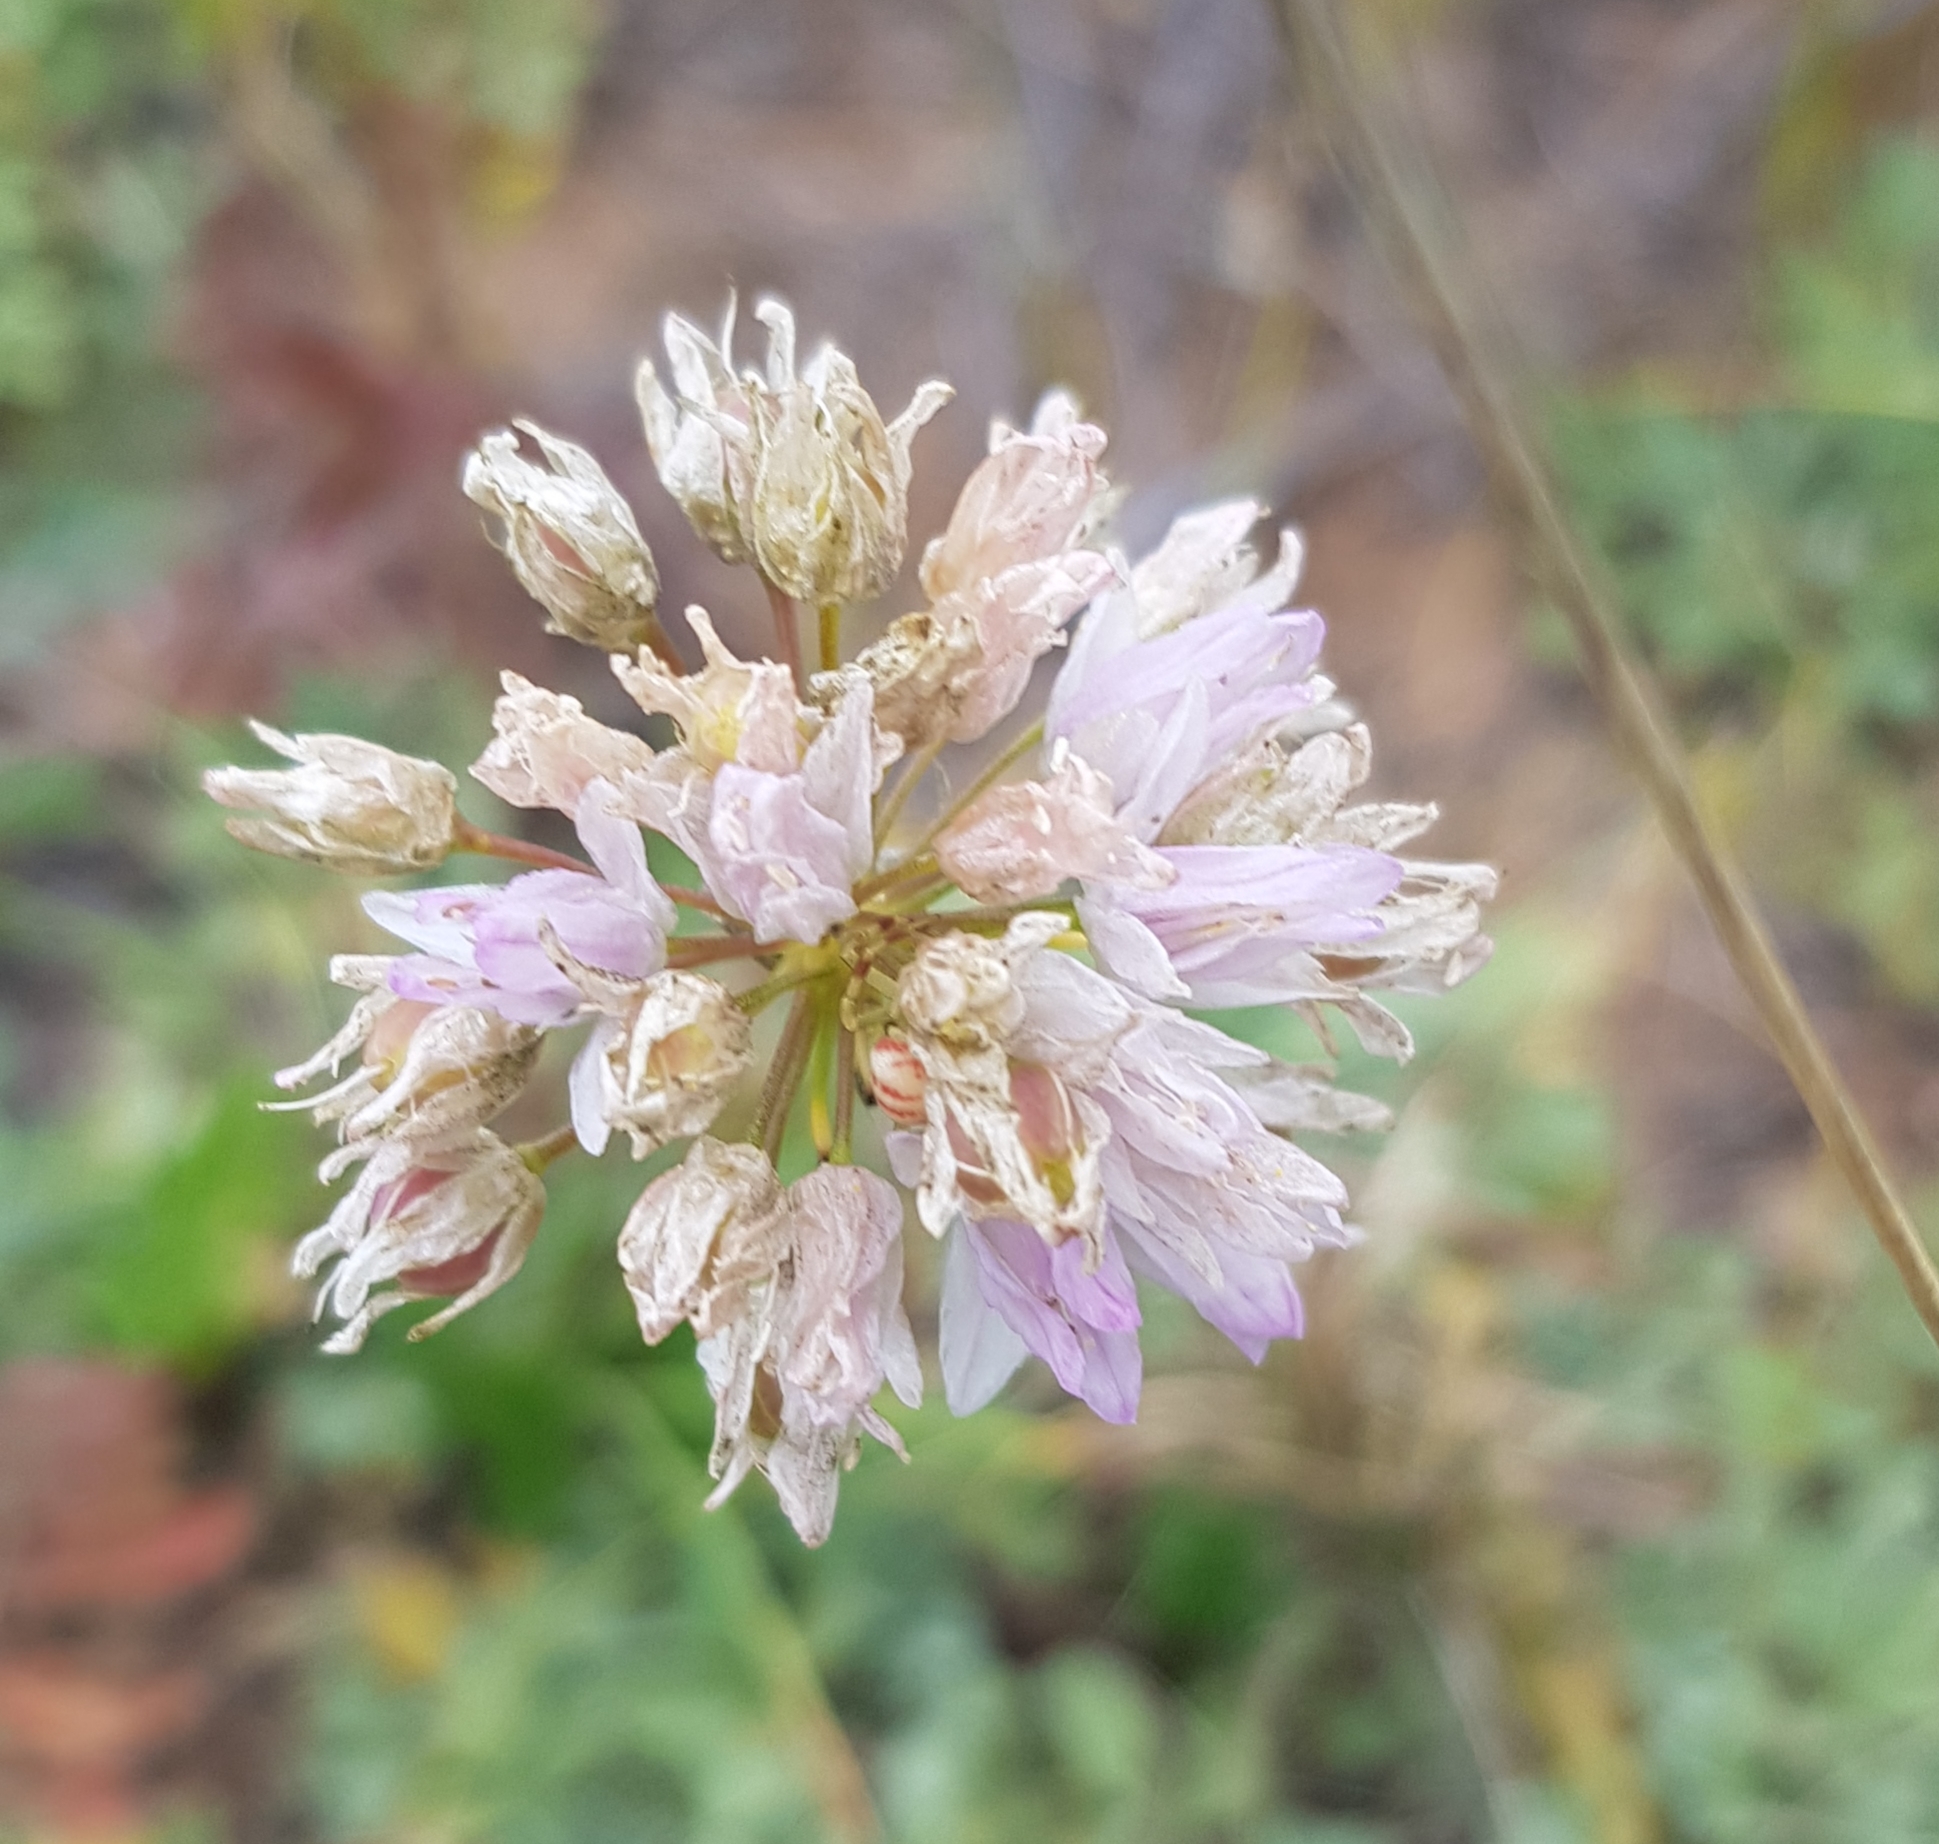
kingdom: Plantae
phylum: Tracheophyta
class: Liliopsida
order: Asparagales
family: Amaryllidaceae
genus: Allium
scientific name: Allium senescens
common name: German garlic
